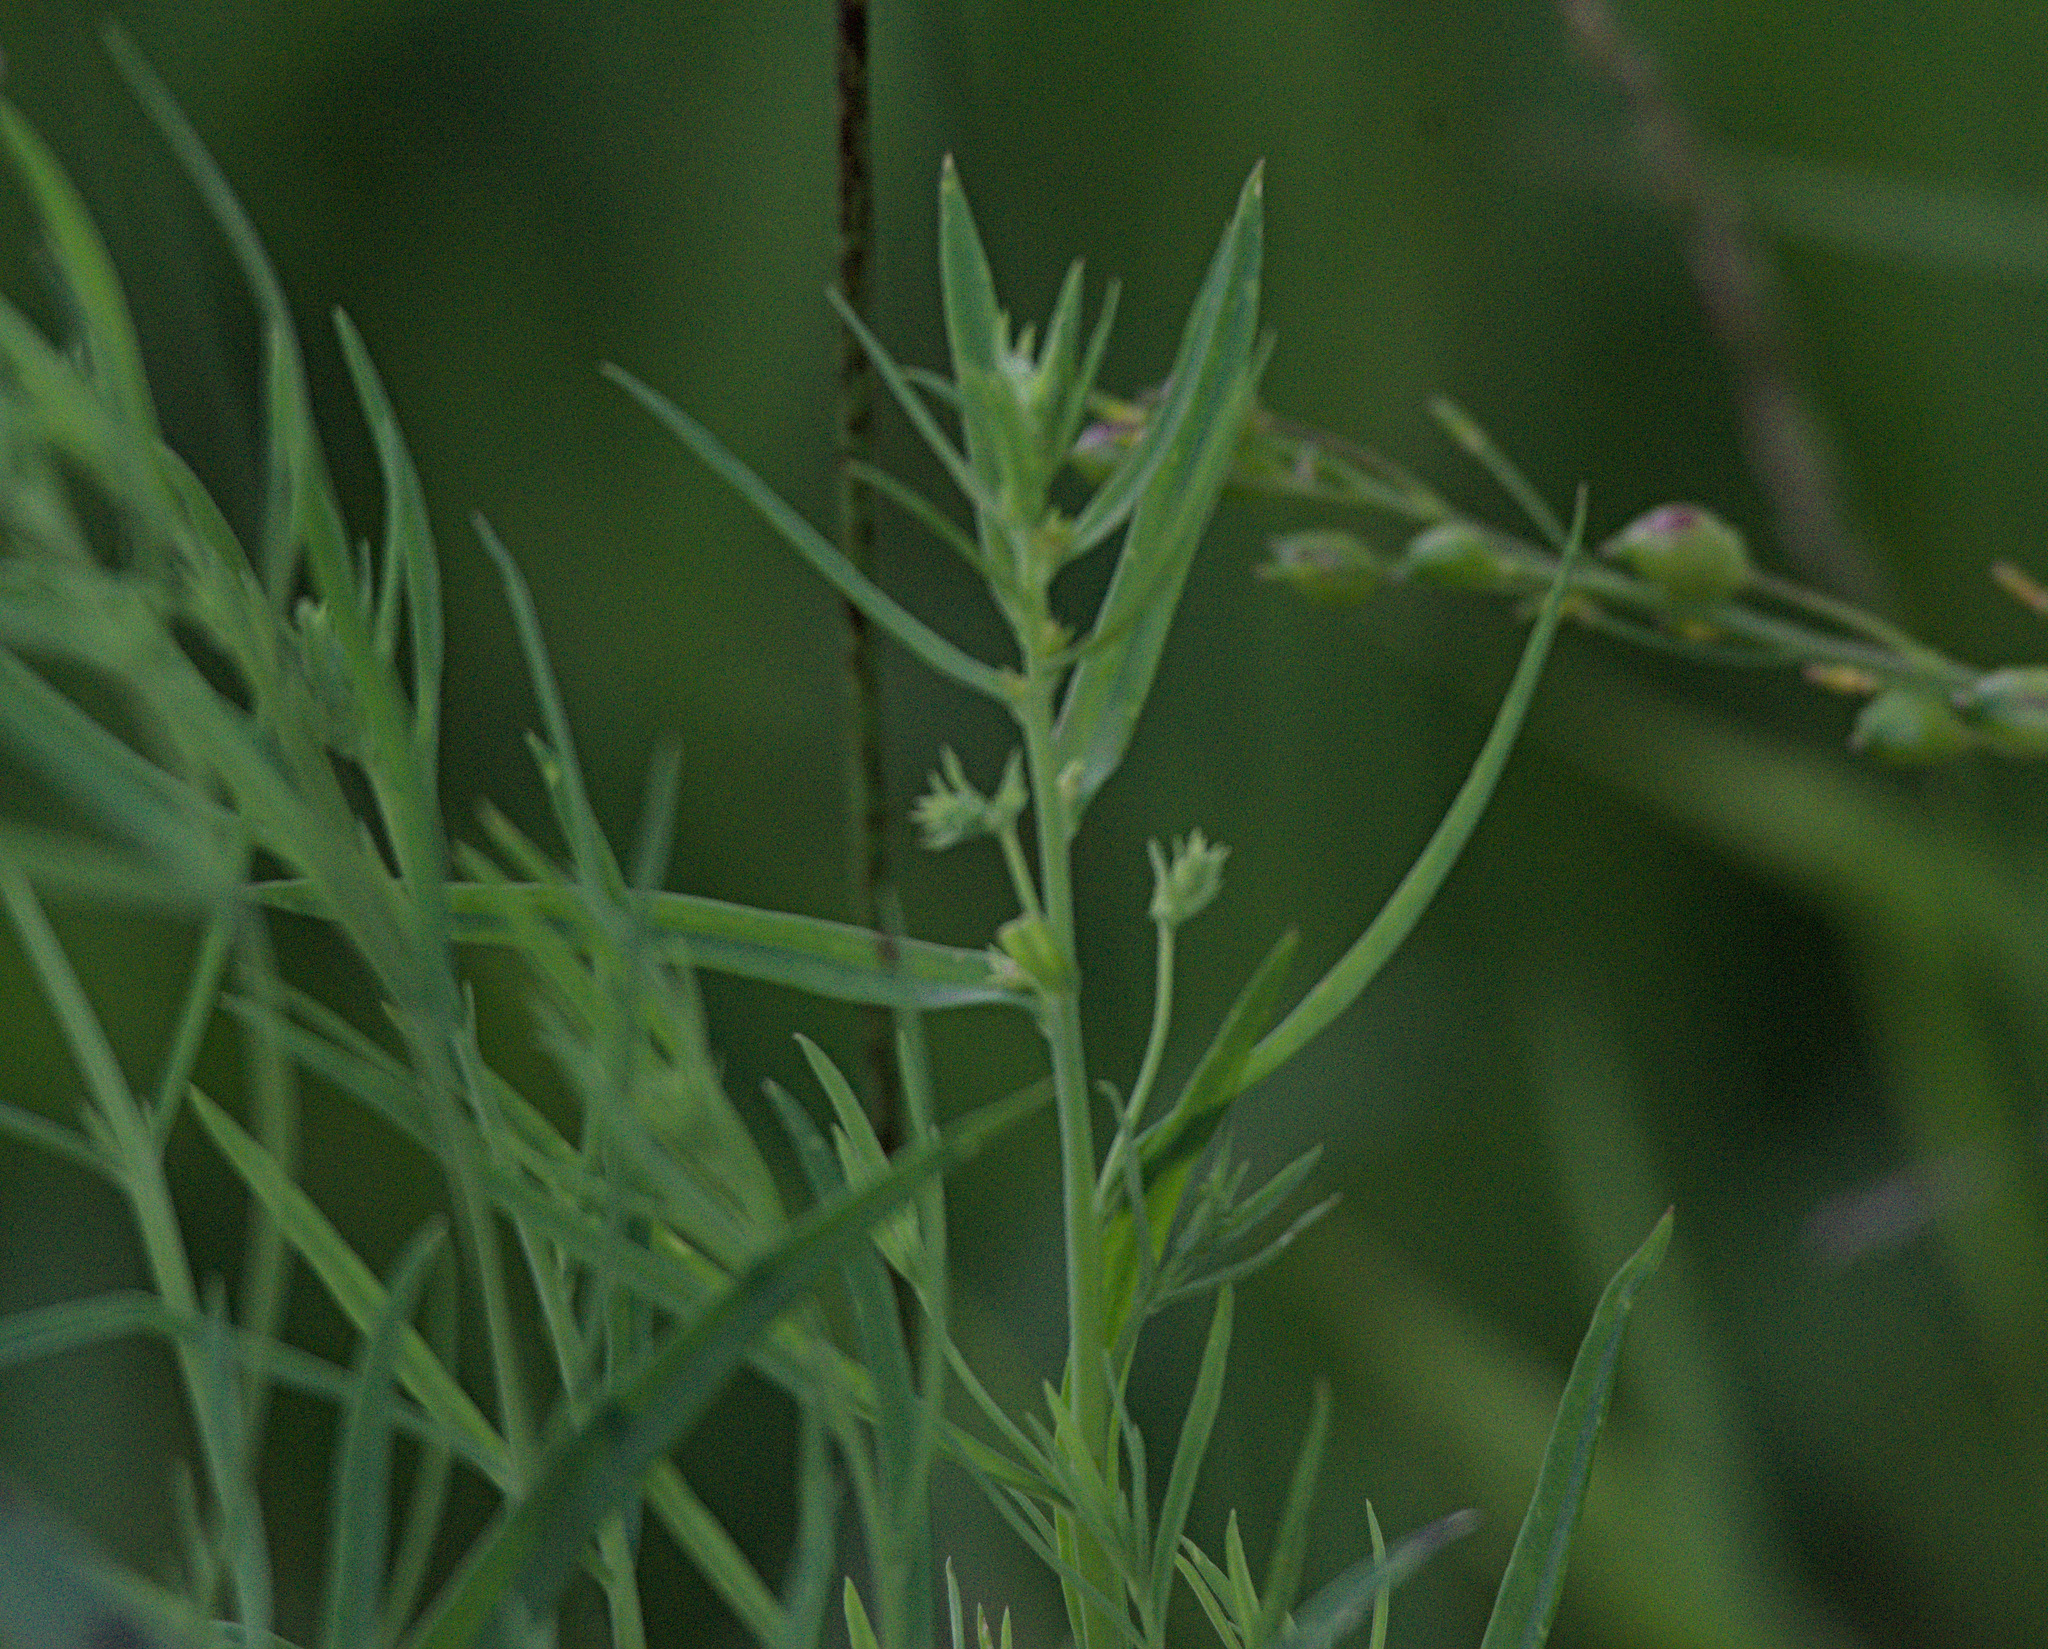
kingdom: Plantae
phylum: Tracheophyta
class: Magnoliopsida
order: Lamiales
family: Plantaginaceae
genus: Linaria
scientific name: Linaria vulgaris
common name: Butter and eggs
